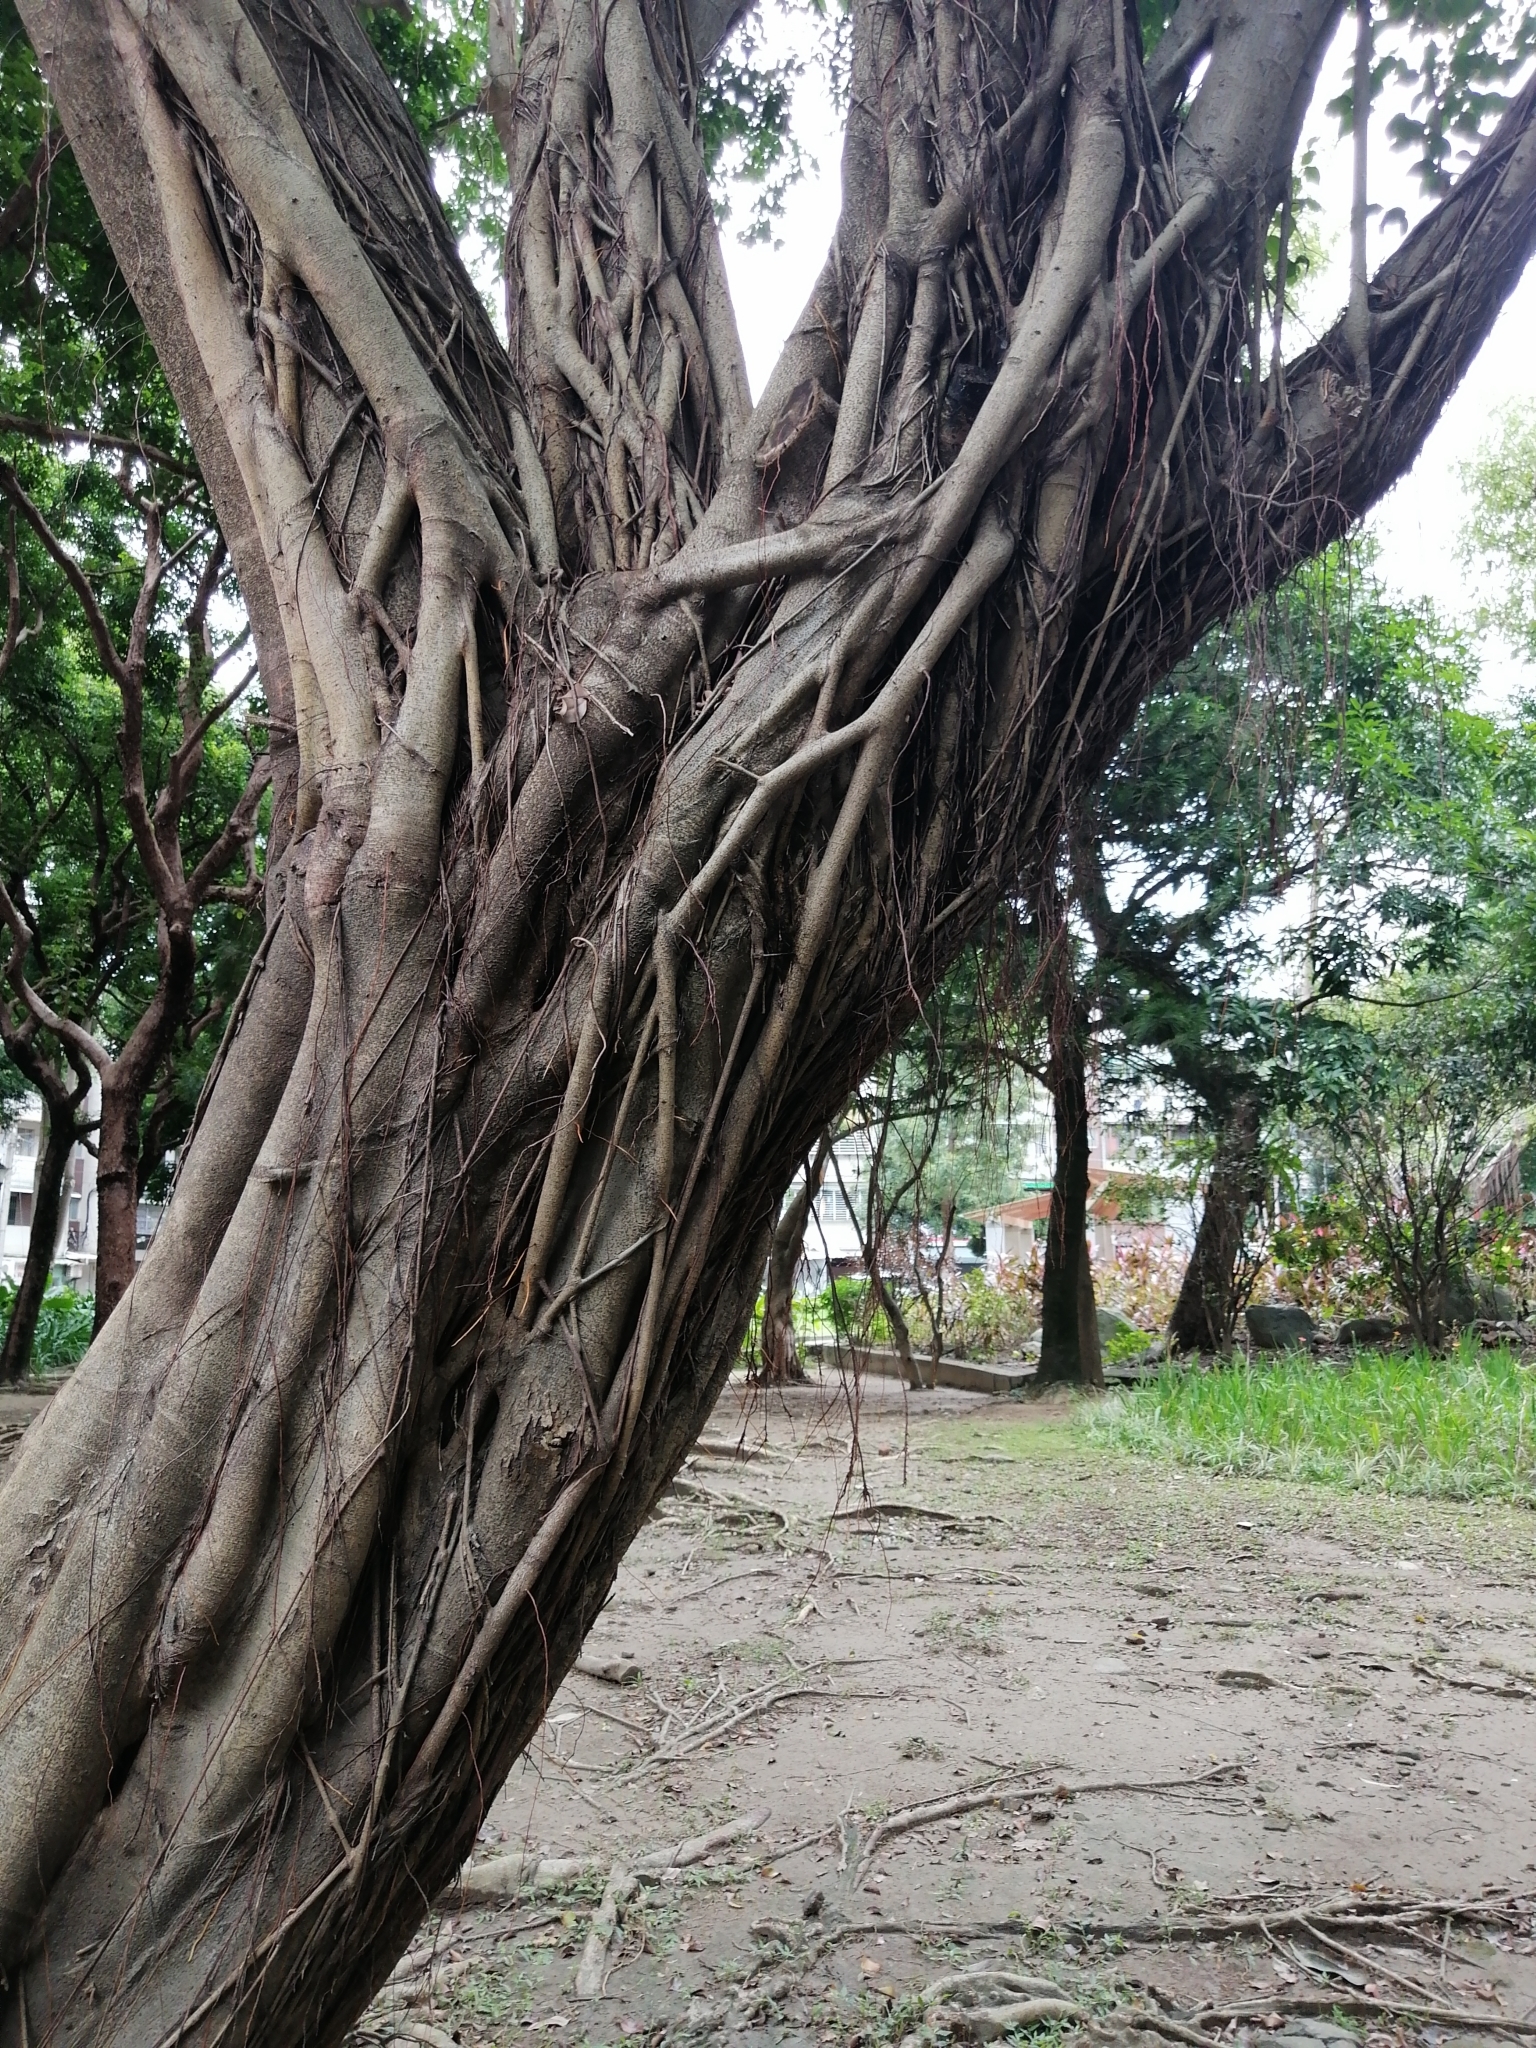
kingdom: Plantae
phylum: Tracheophyta
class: Magnoliopsida
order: Rosales
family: Moraceae
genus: Ficus
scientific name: Ficus microcarpa
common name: Chinese banyan
